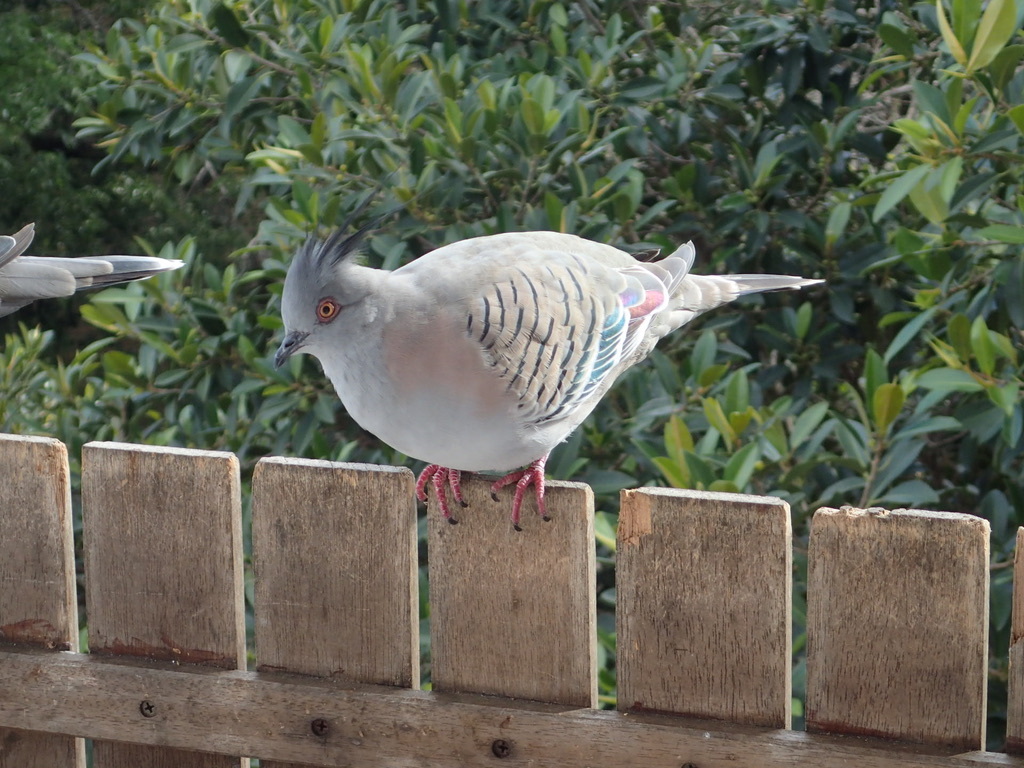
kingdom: Animalia
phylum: Chordata
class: Aves
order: Columbiformes
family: Columbidae
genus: Ocyphaps
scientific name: Ocyphaps lophotes
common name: Crested pigeon
